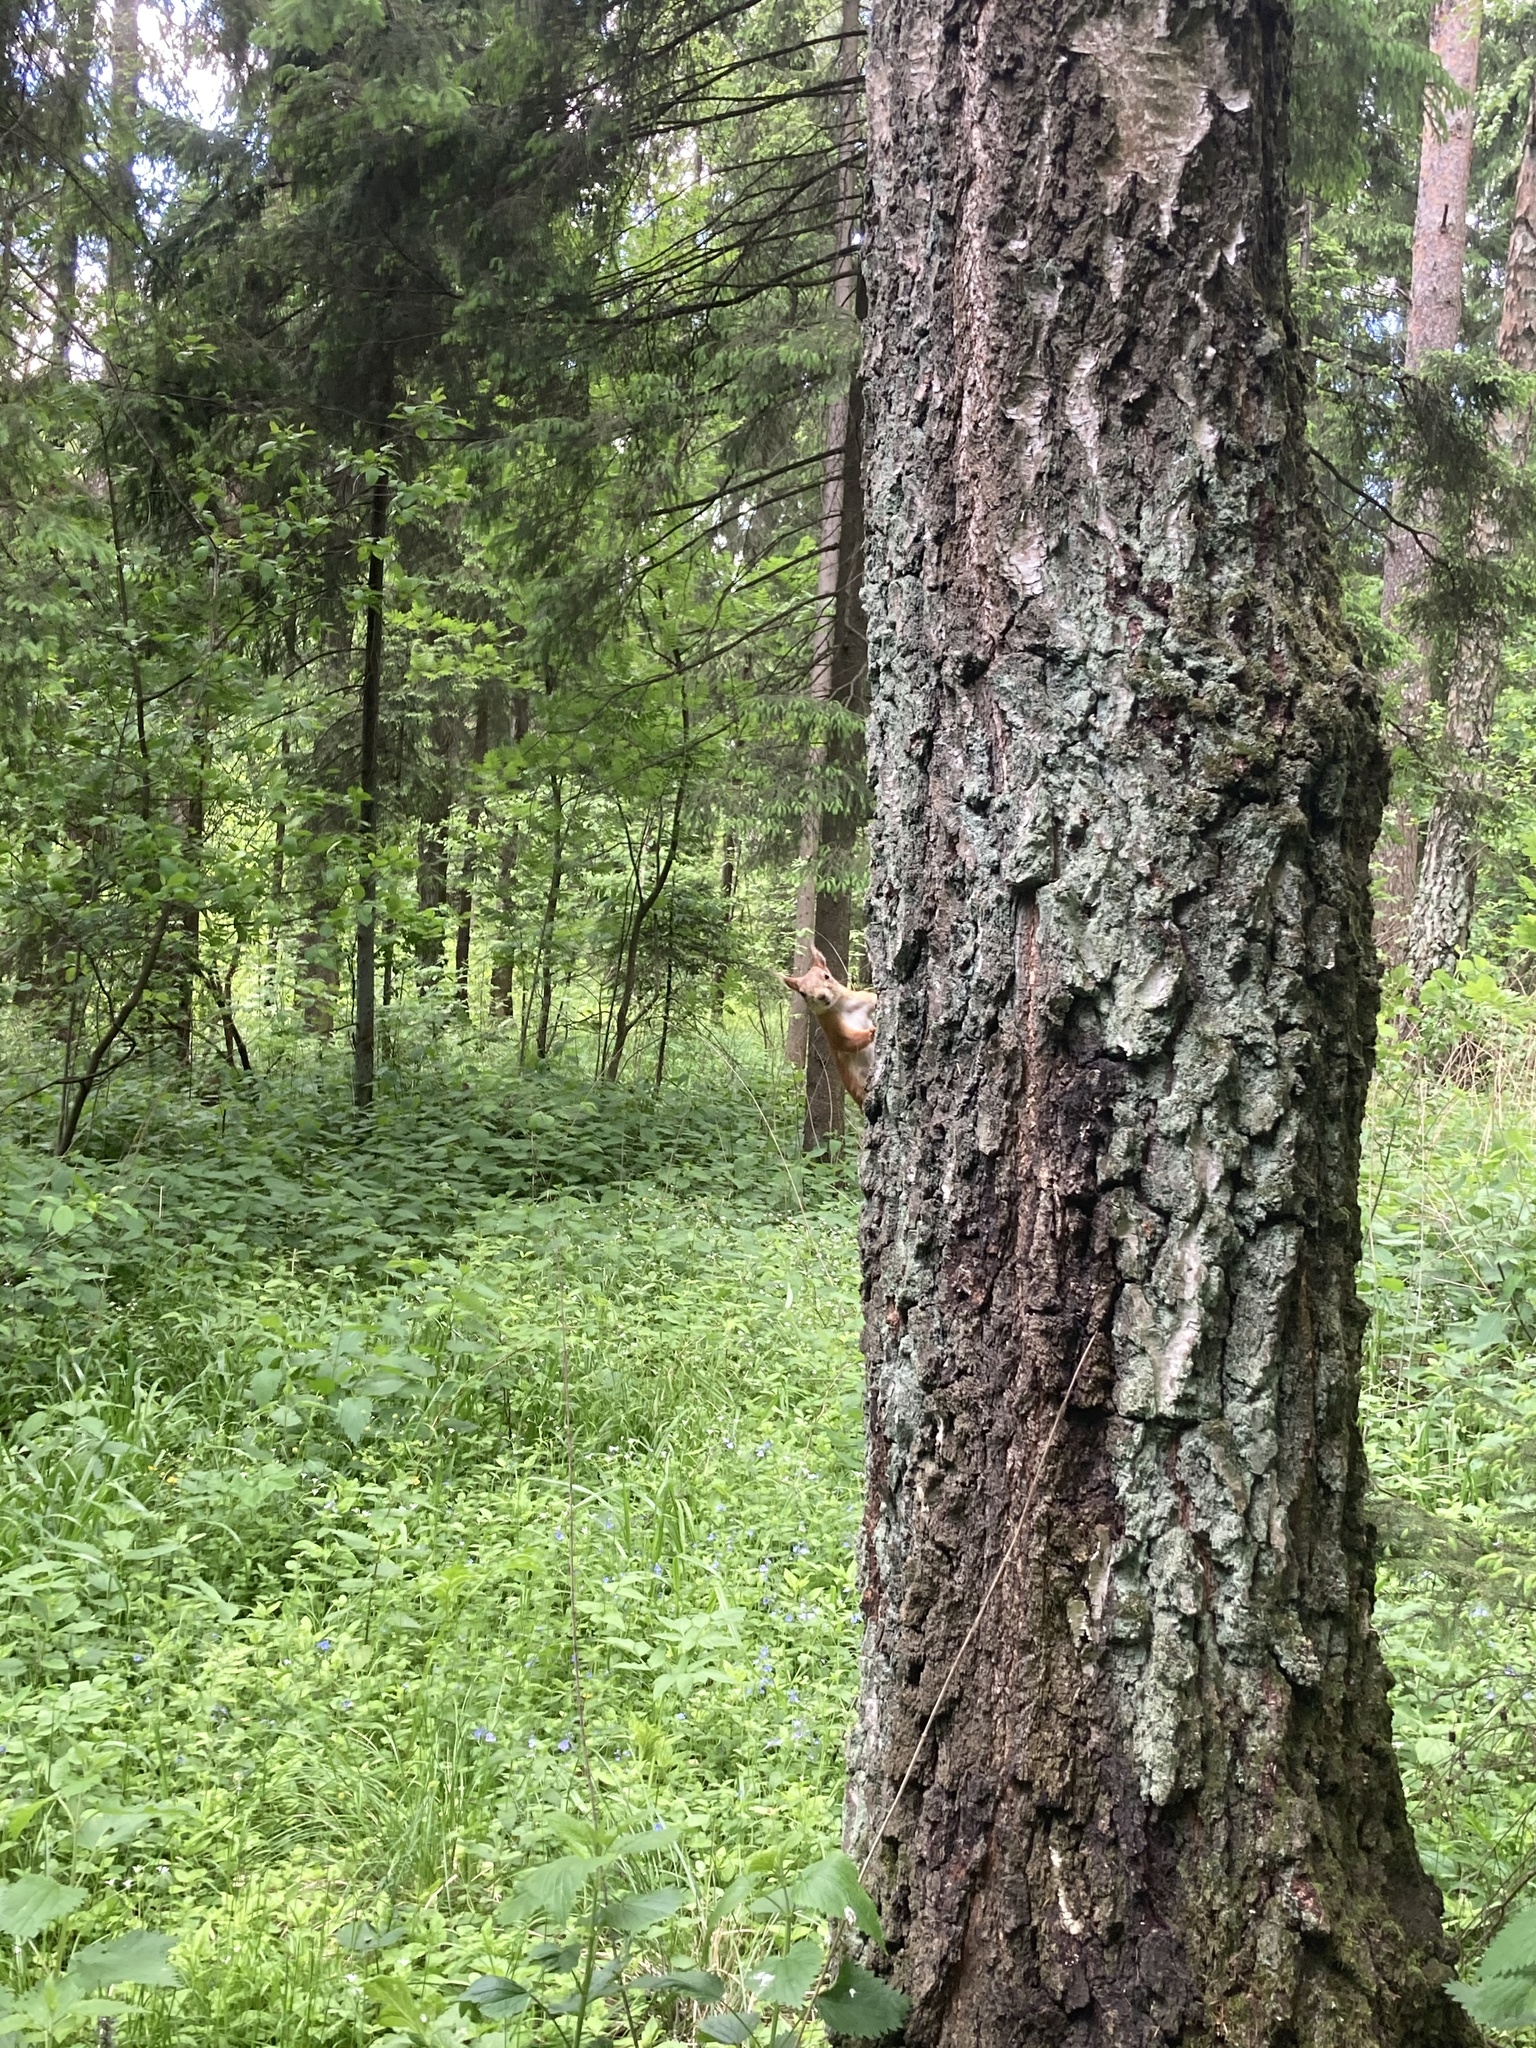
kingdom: Animalia
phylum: Chordata
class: Mammalia
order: Rodentia
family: Sciuridae
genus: Sciurus
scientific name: Sciurus vulgaris
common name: Eurasian red squirrel
